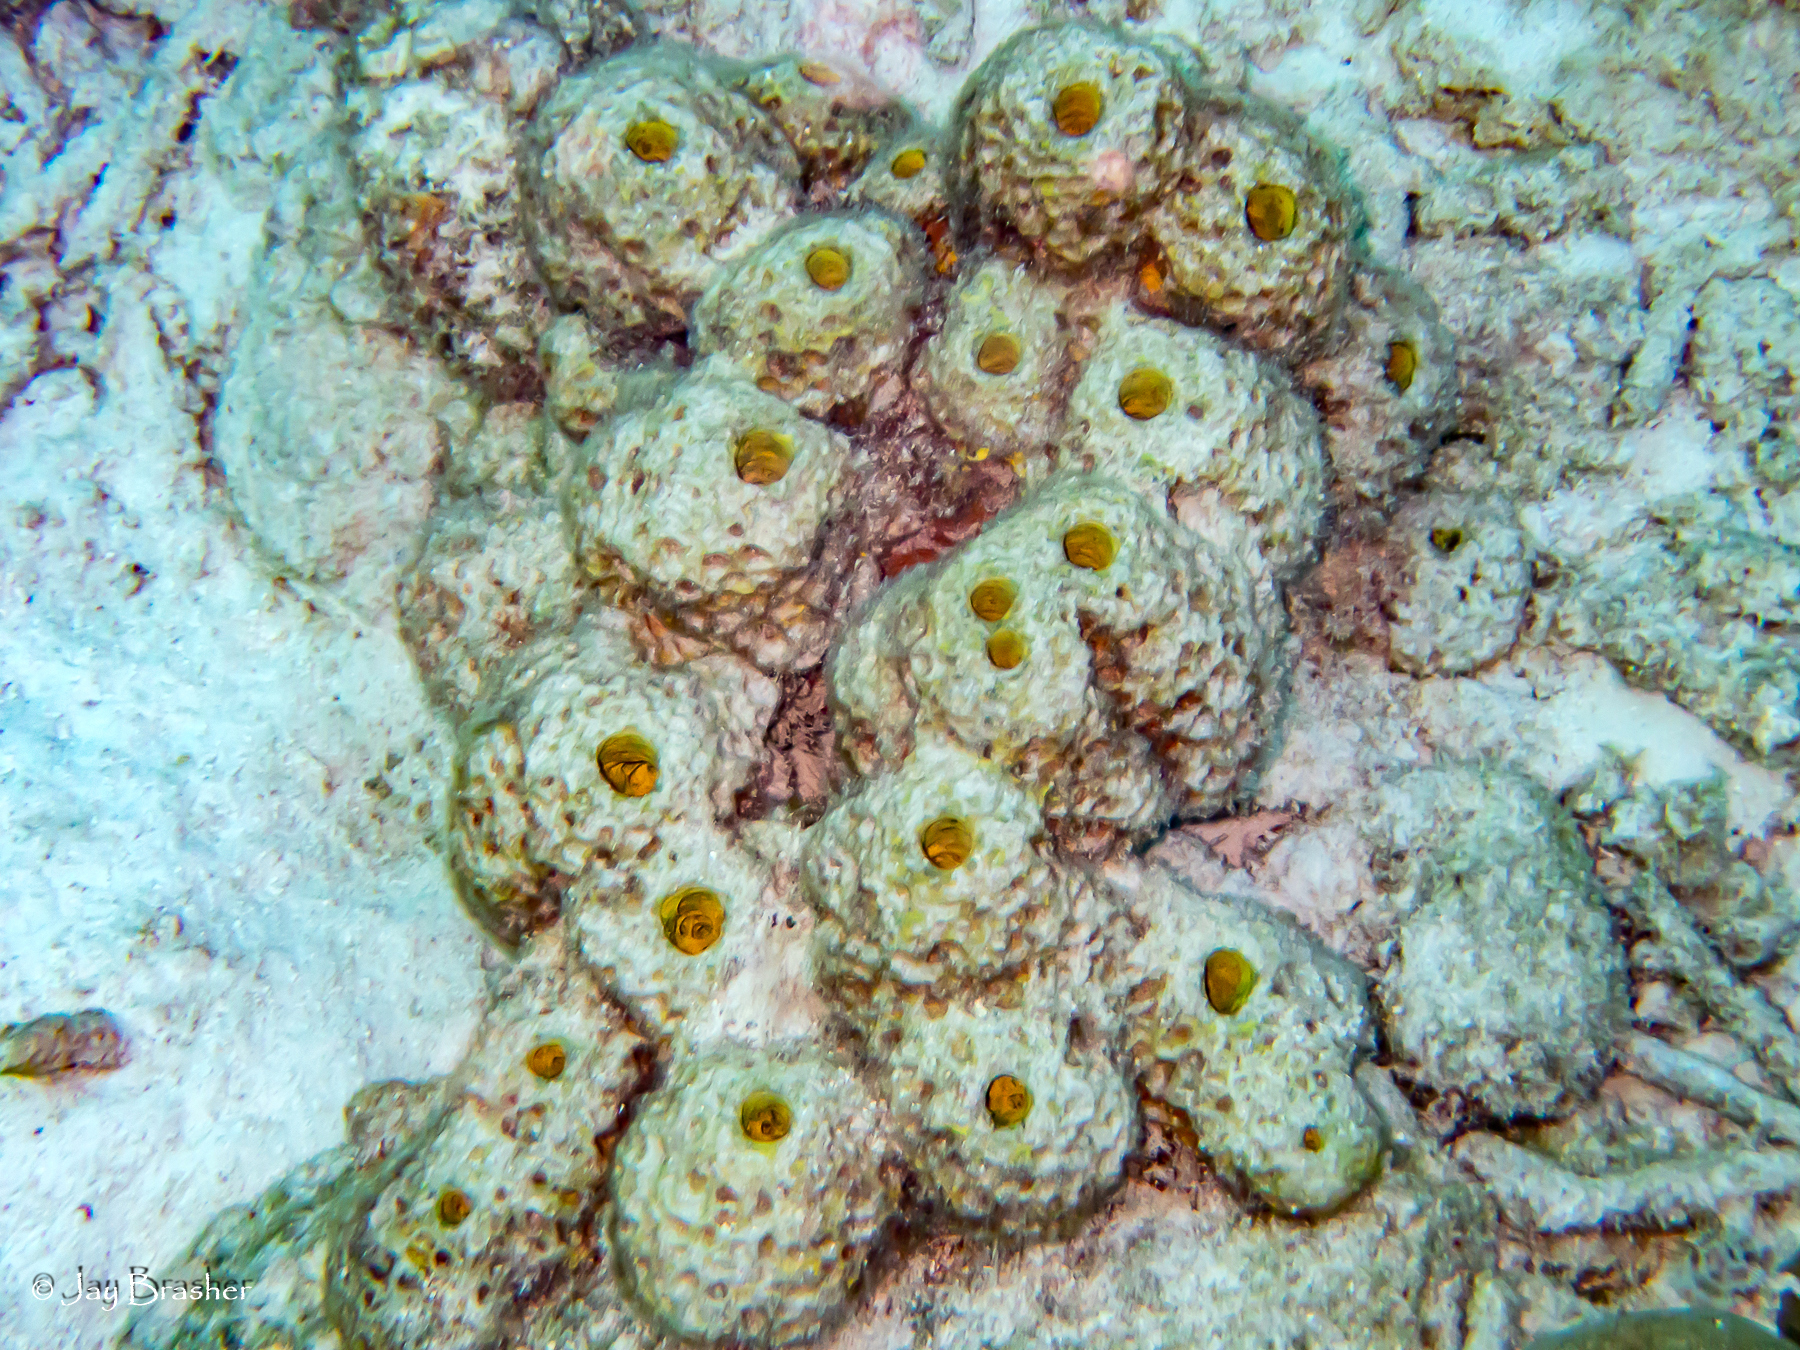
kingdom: Animalia
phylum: Porifera
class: Demospongiae
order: Verongiida
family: Aplysinidae
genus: Verongula
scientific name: Verongula rigida
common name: Pitted sponge
